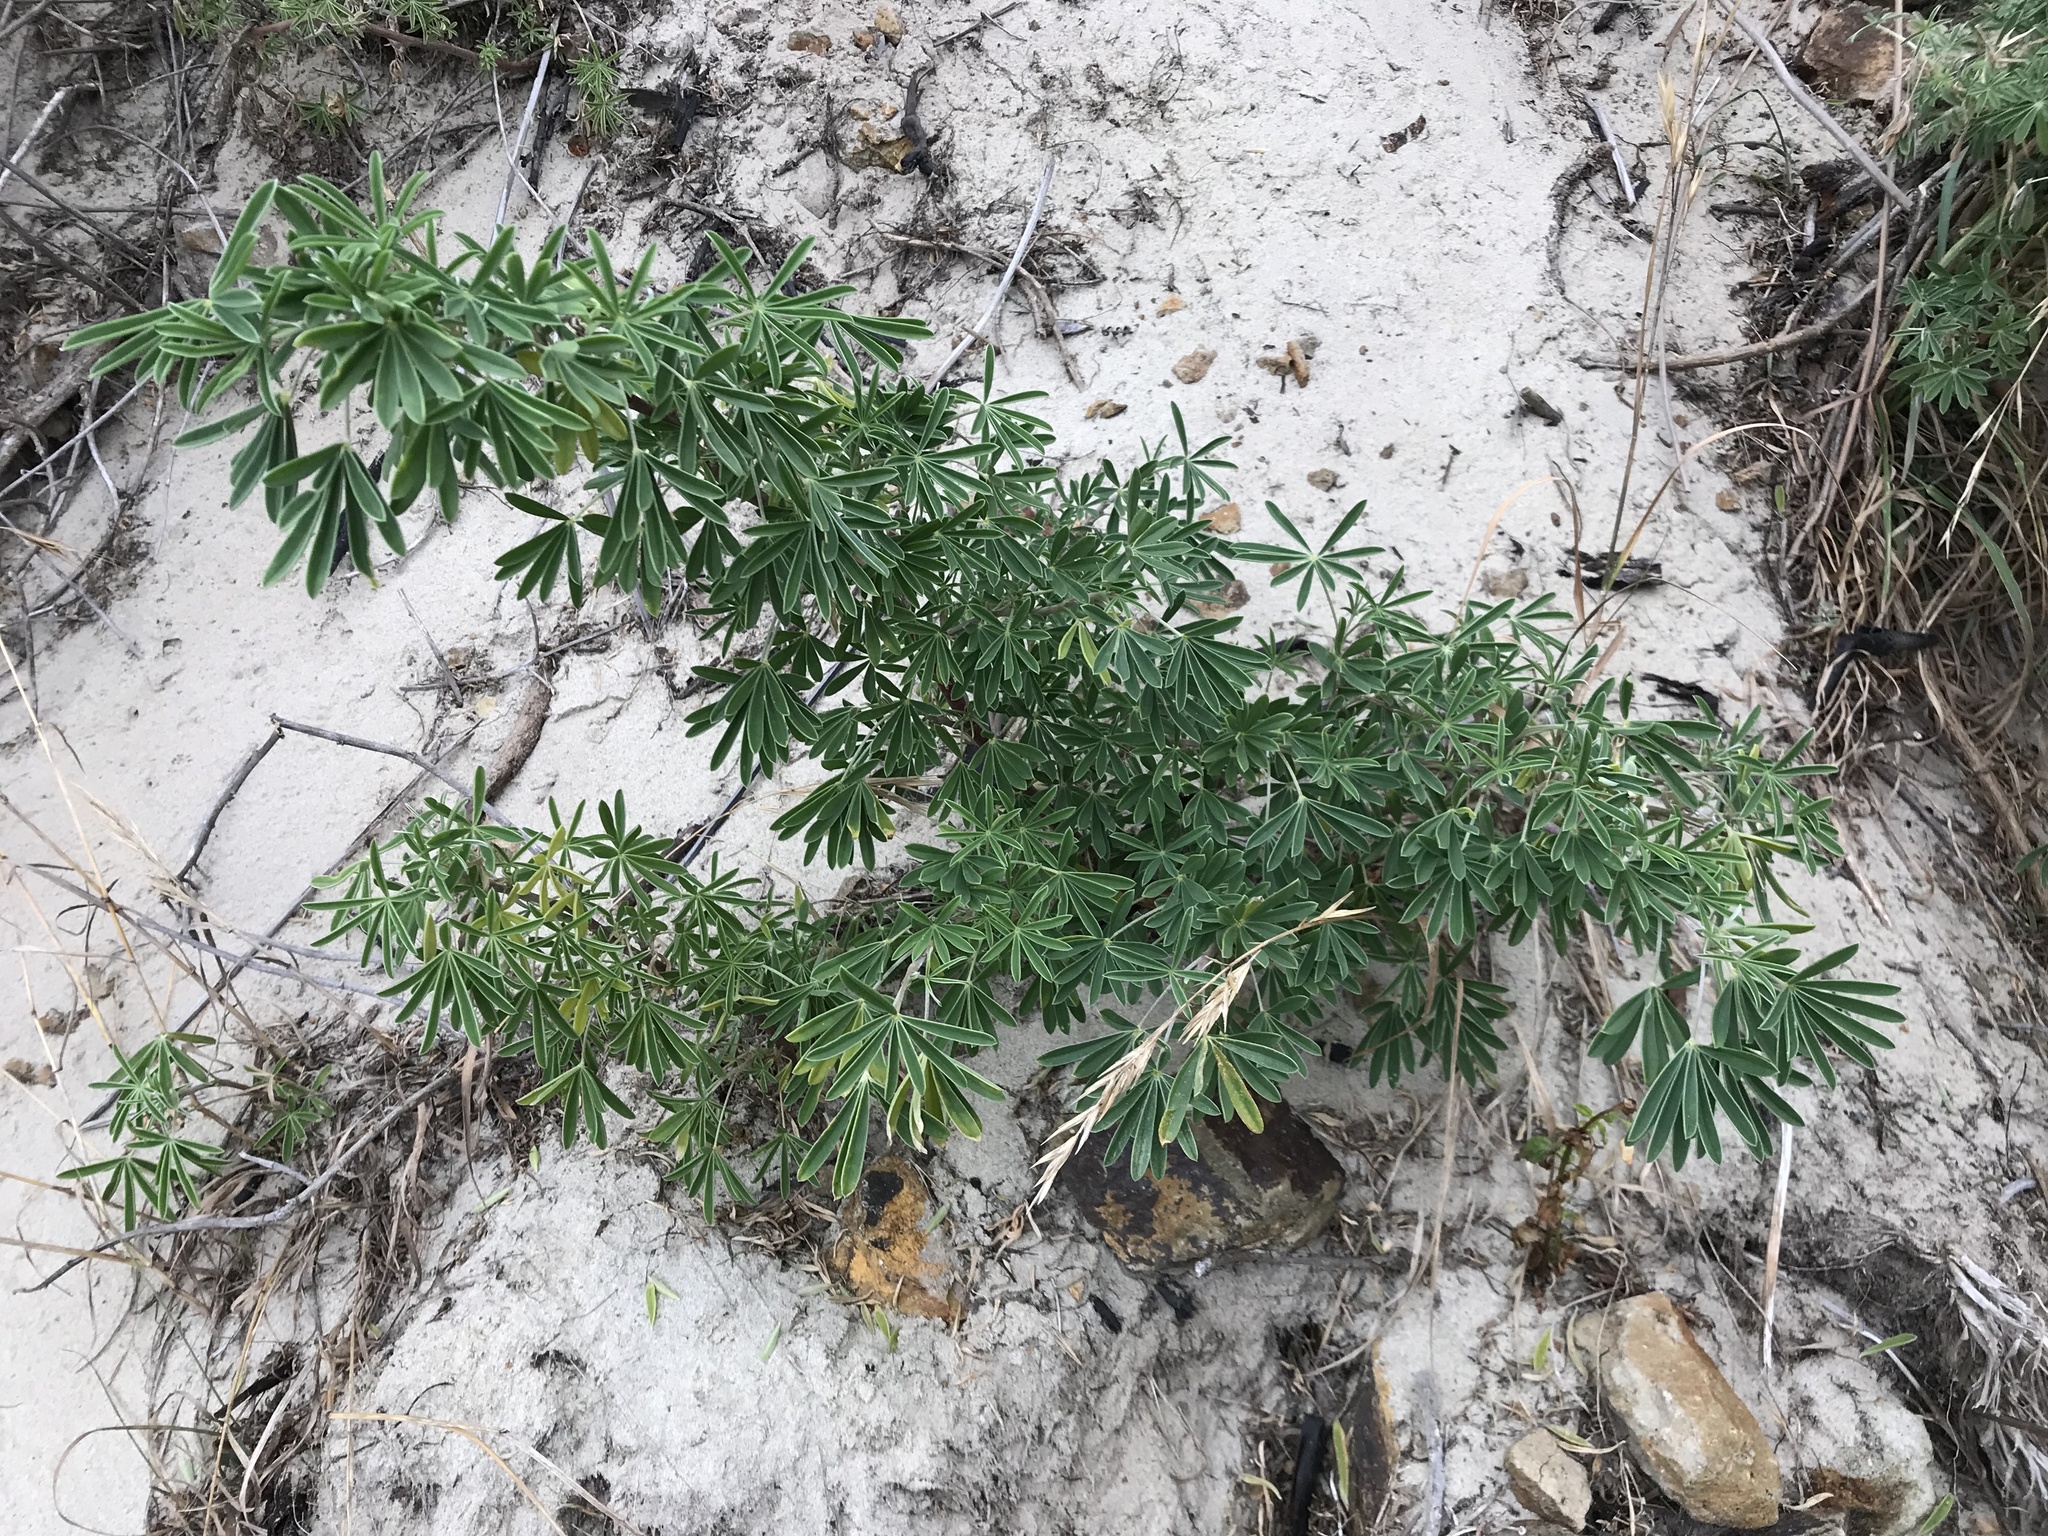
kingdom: Plantae
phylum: Tracheophyta
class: Magnoliopsida
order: Fabales
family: Fabaceae
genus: Lupinus
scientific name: Lupinus arboreus
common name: Yellow bush lupine
